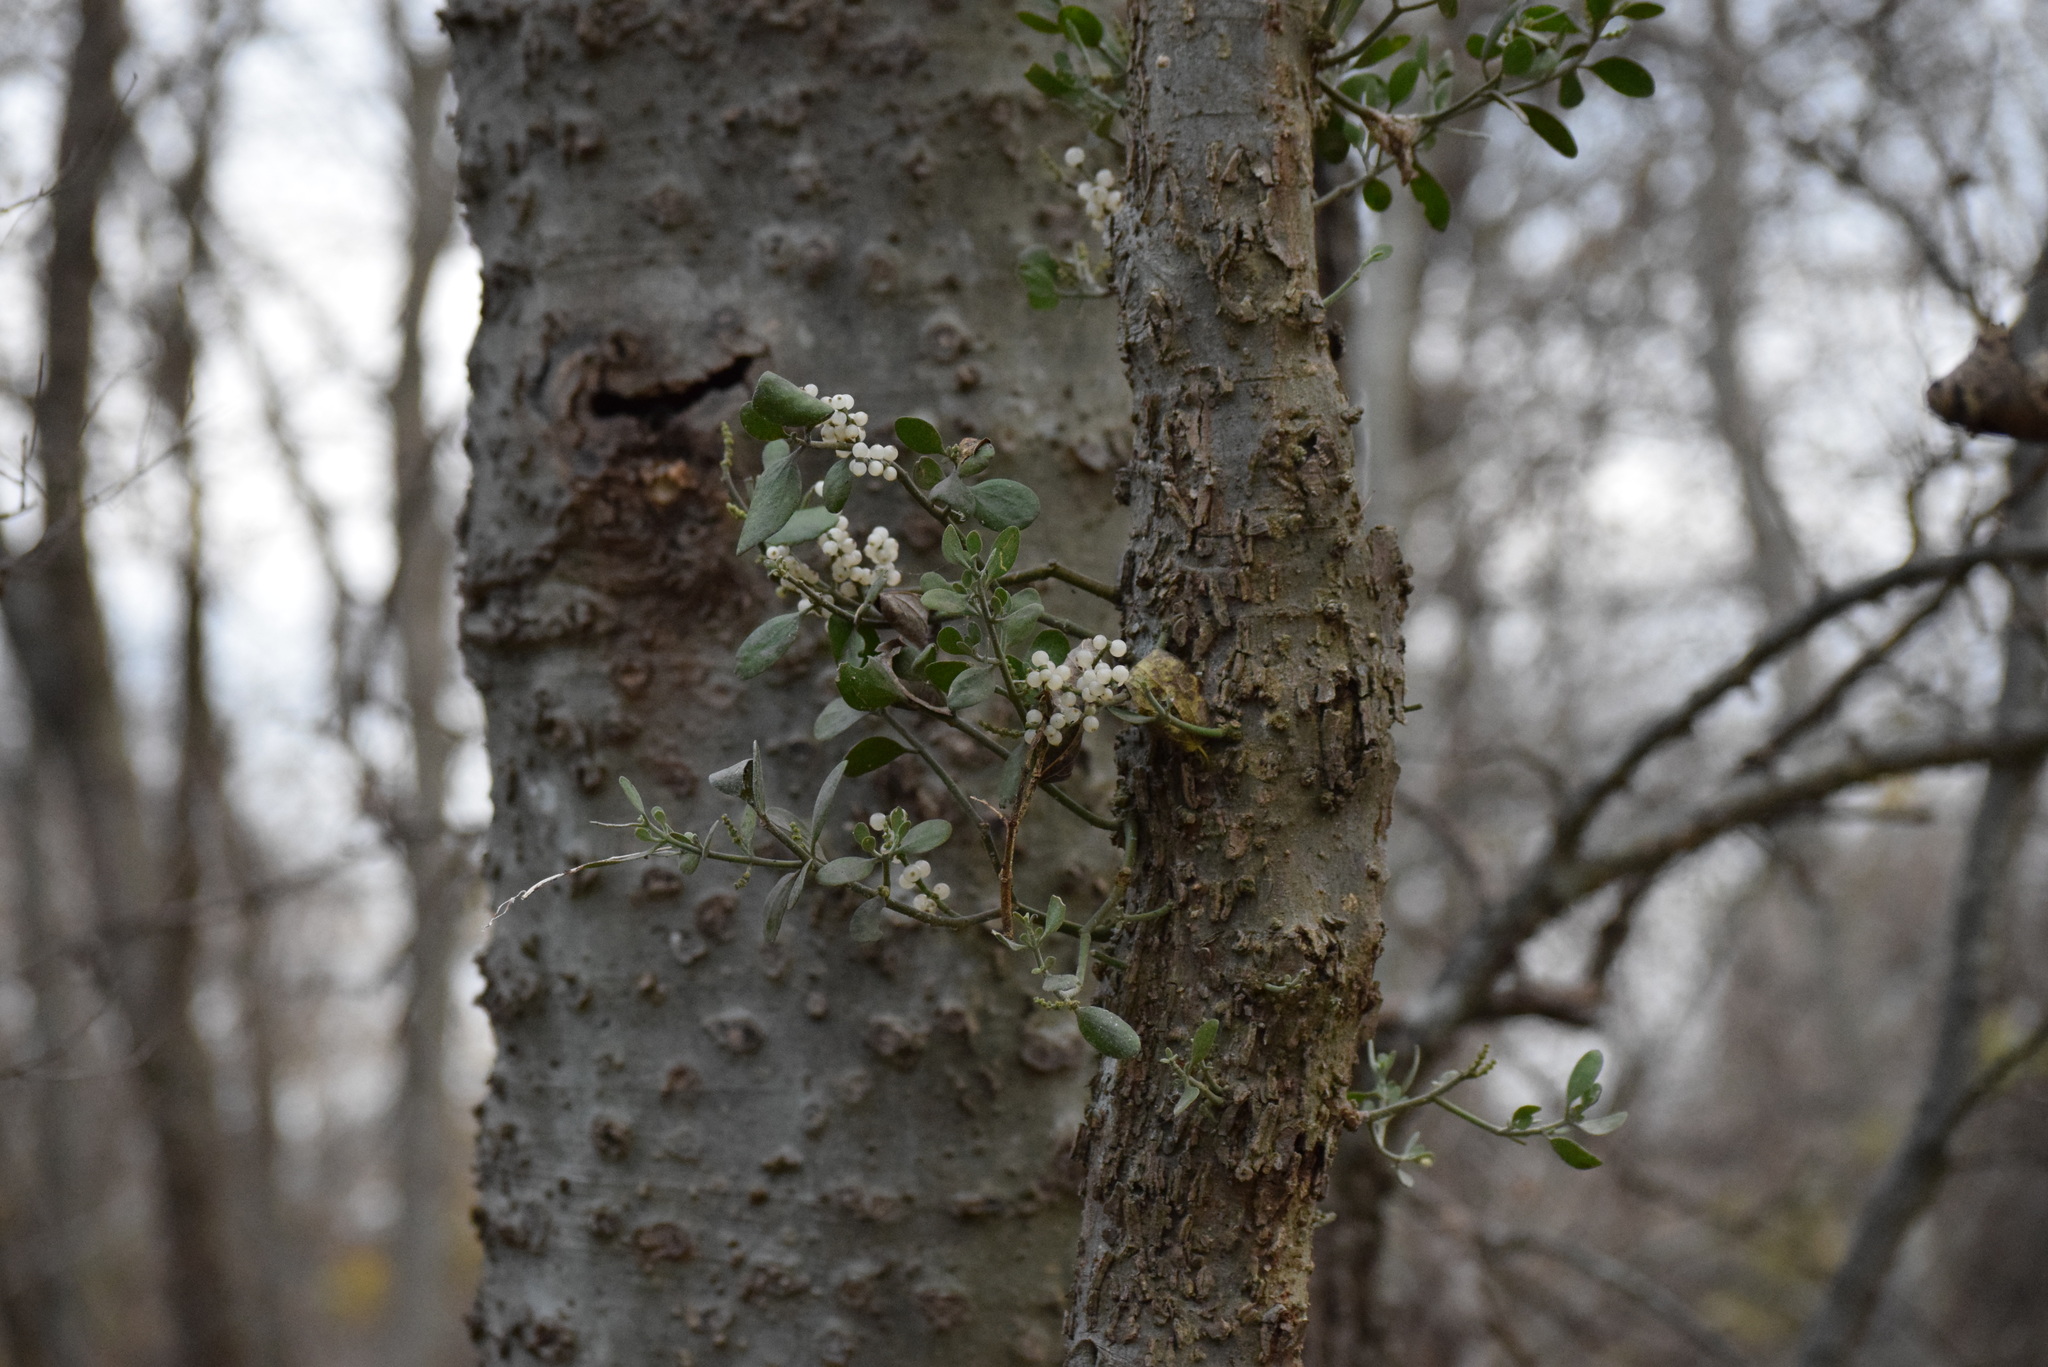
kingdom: Plantae
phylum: Tracheophyta
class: Magnoliopsida
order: Santalales
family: Viscaceae
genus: Phoradendron
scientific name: Phoradendron leucarpum
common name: Pacific mistletoe
